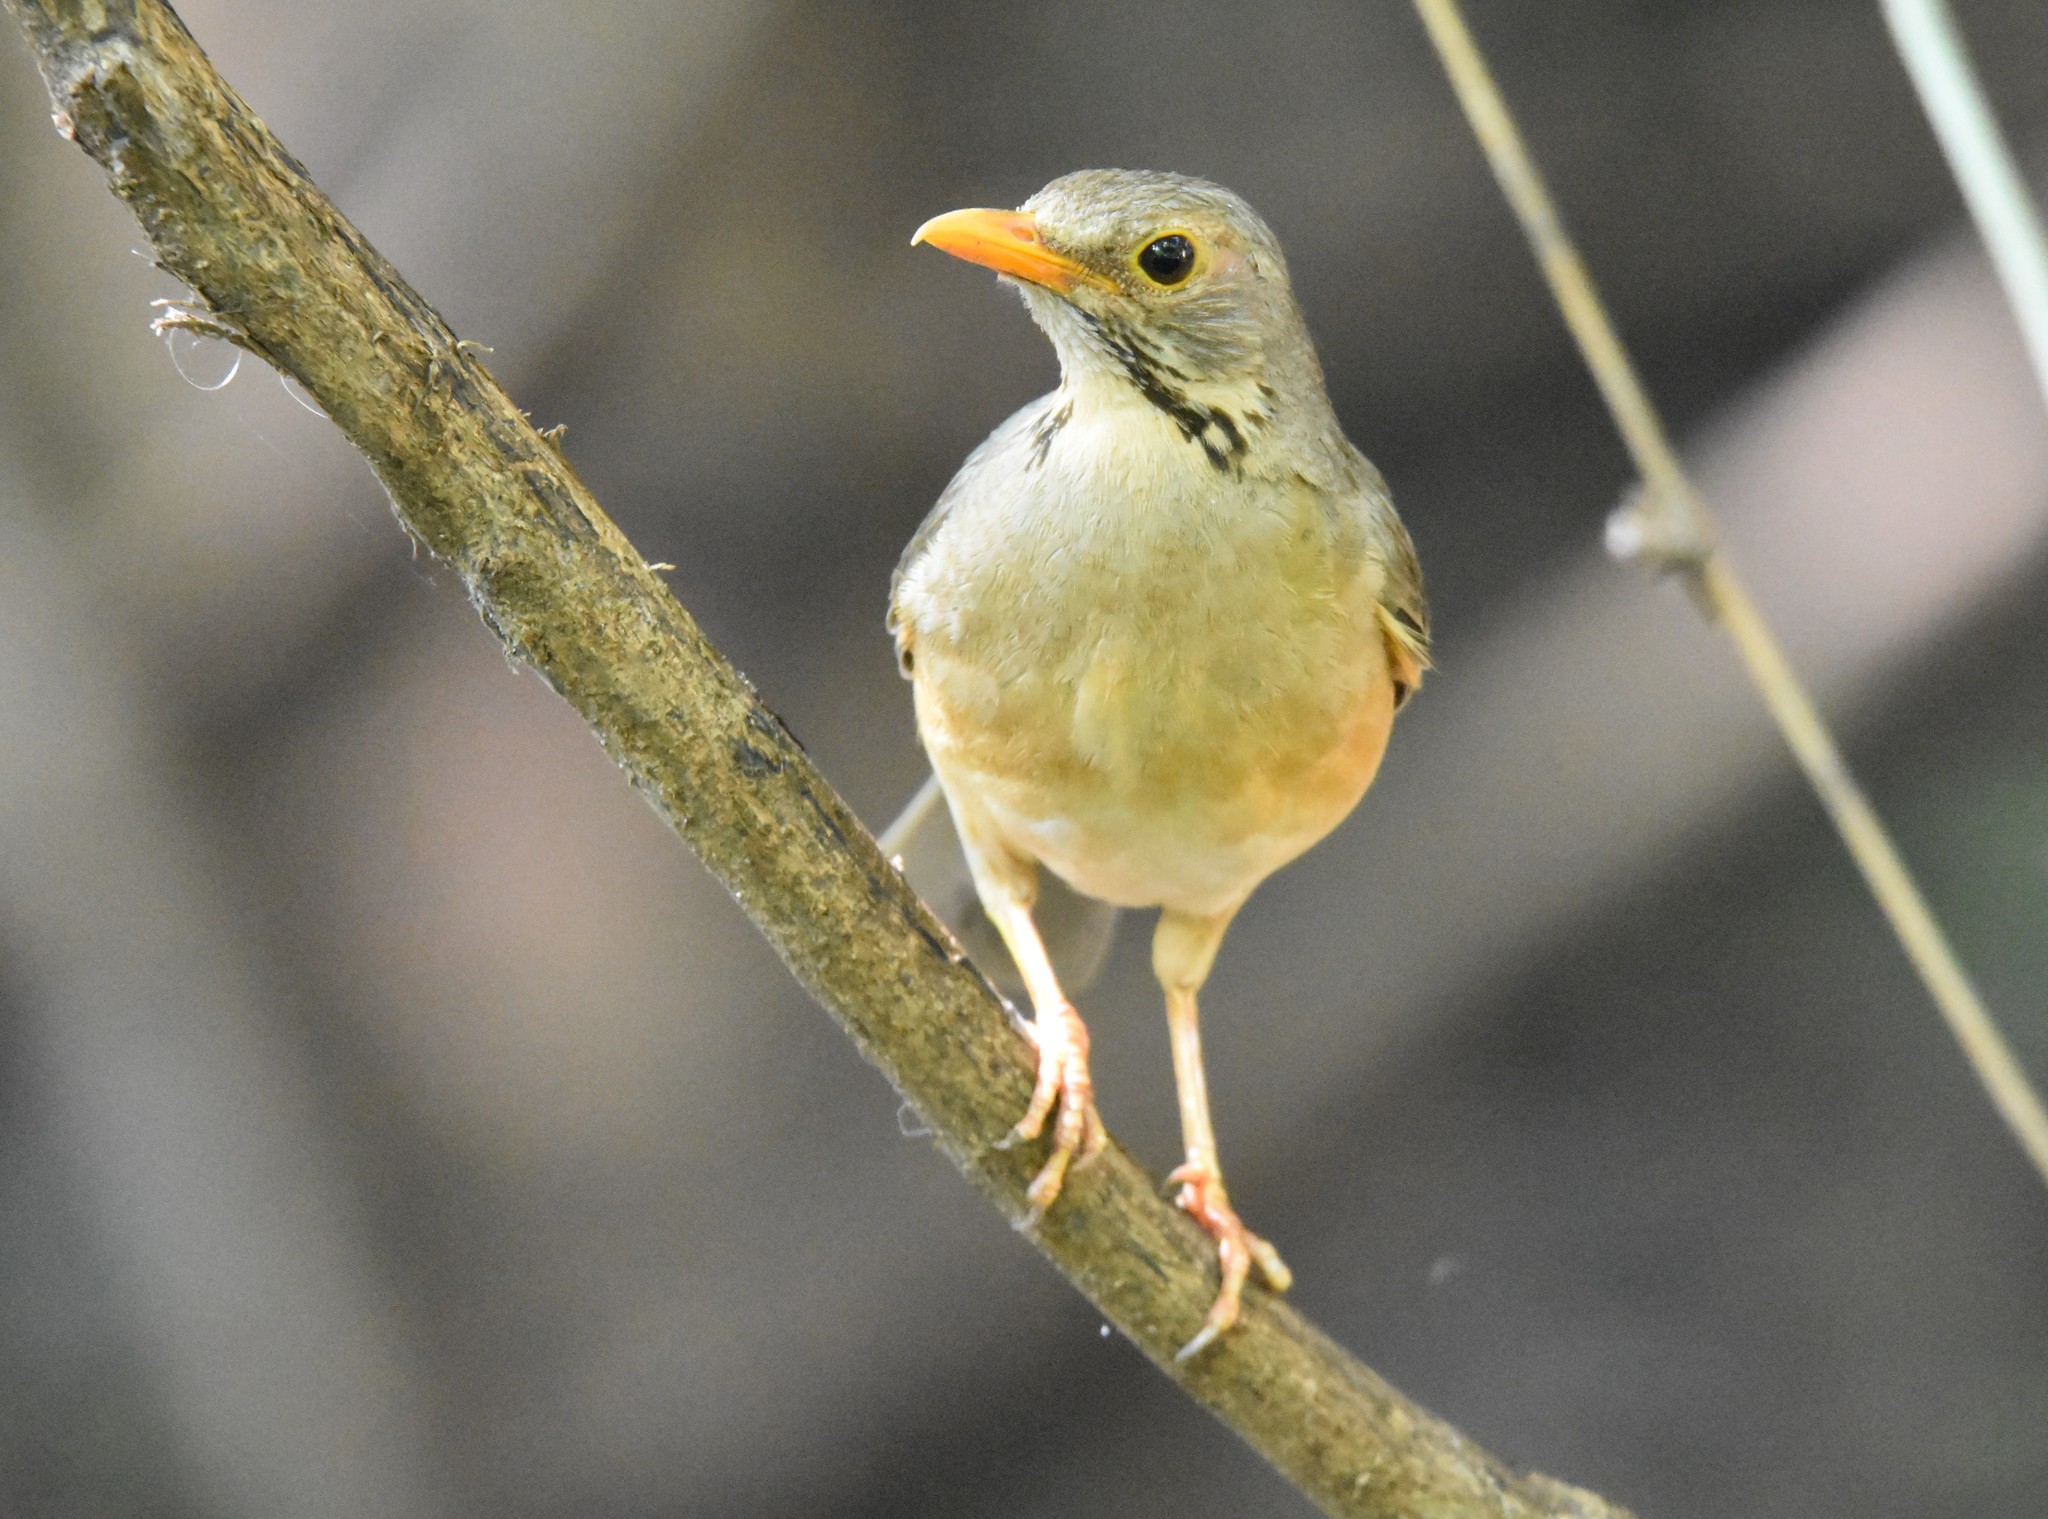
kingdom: Animalia
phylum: Chordata
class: Aves
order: Passeriformes
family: Turdidae
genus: Turdus
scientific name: Turdus libonyana
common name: Kurrichane thrush
